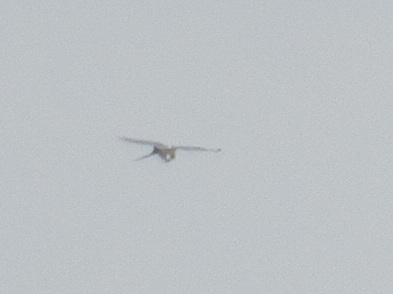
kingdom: Animalia
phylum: Chordata
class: Aves
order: Accipitriformes
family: Accipitridae
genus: Elanoides
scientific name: Elanoides forficatus
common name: Swallow-tailed kite
